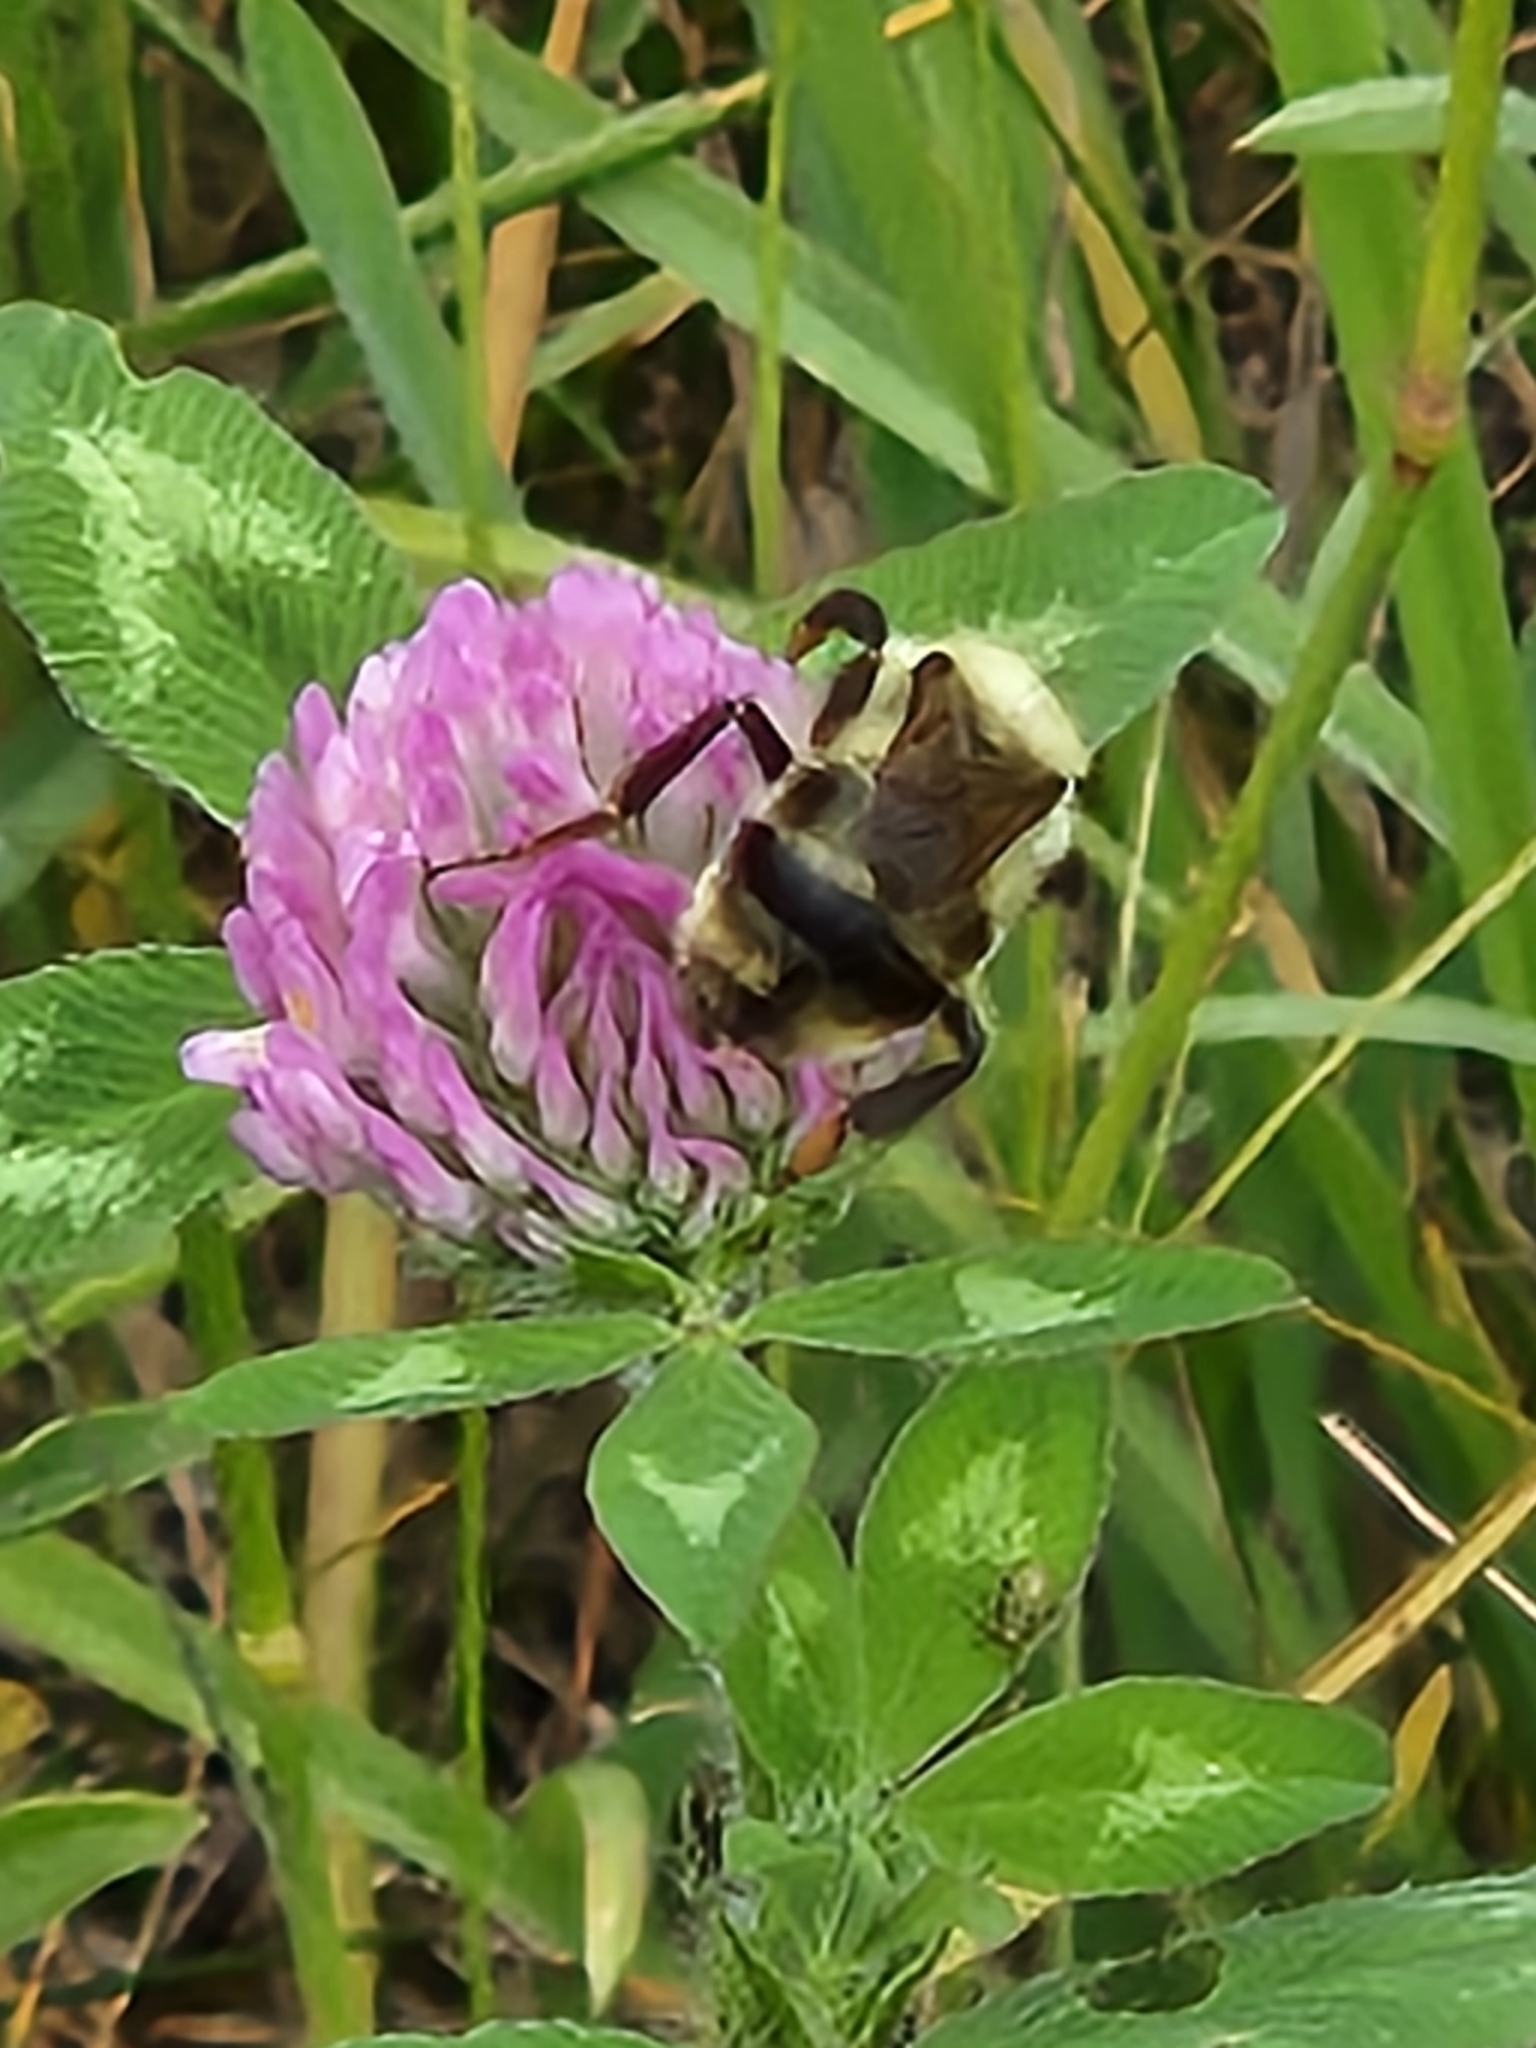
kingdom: Animalia
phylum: Arthropoda
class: Insecta
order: Hymenoptera
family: Apidae
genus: Bombus
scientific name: Bombus bimaculatus
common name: Two-spotted bumble bee
